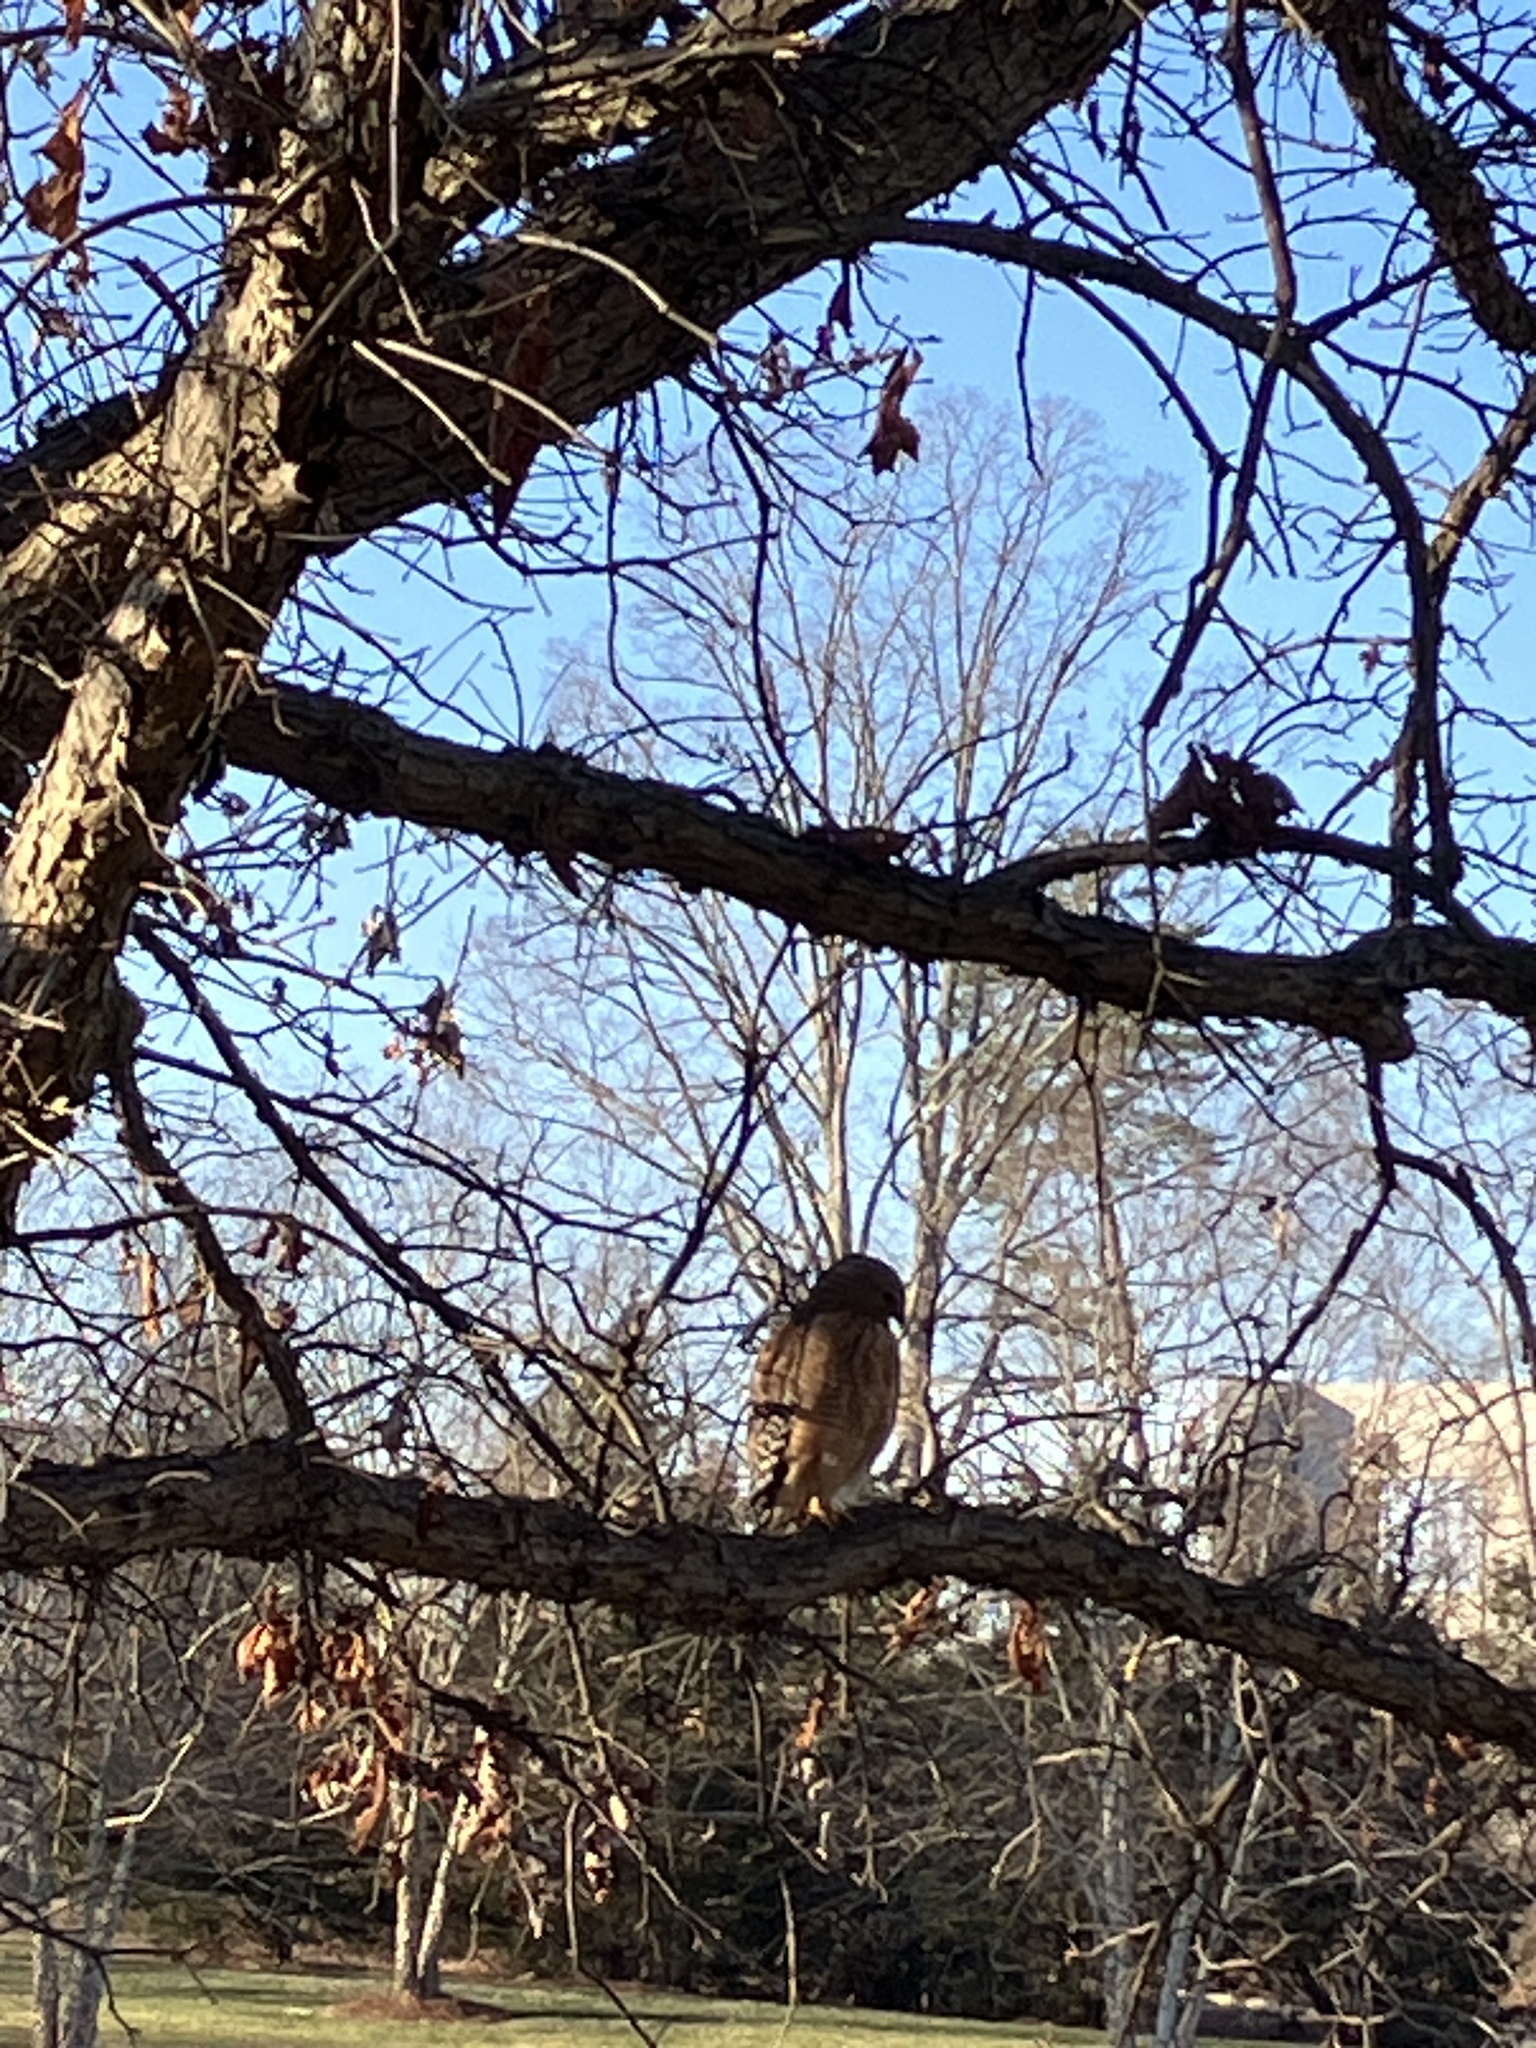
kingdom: Animalia
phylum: Chordata
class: Aves
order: Accipitriformes
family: Accipitridae
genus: Buteo
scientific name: Buteo lineatus
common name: Red-shouldered hawk
